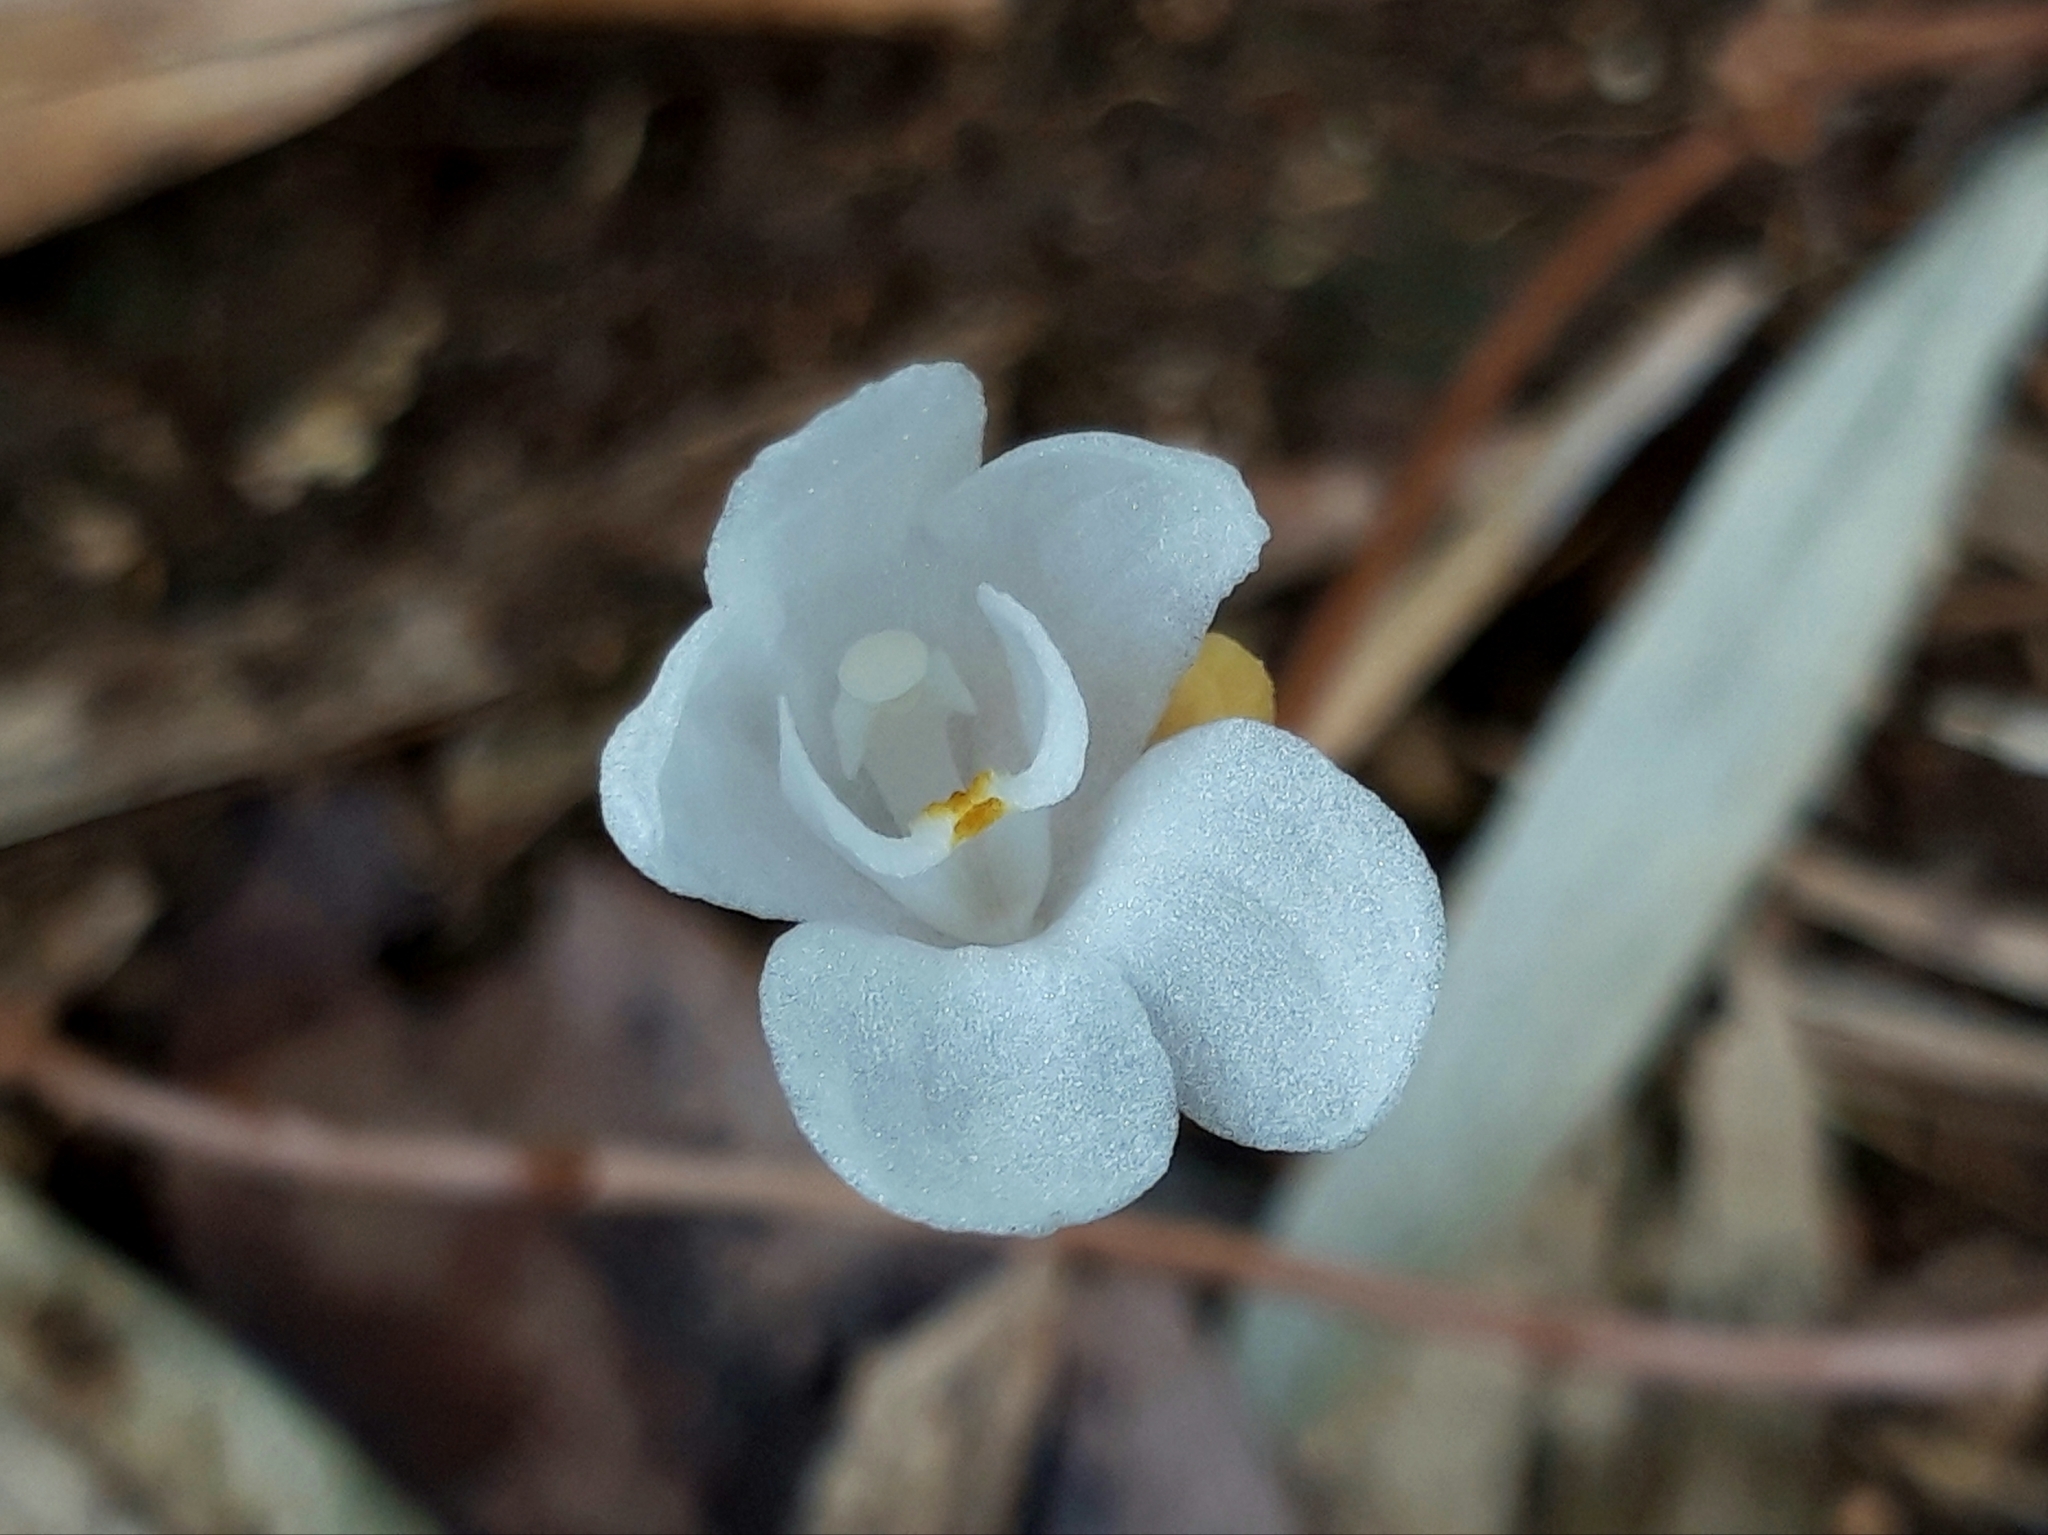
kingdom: Plantae
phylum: Tracheophyta
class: Liliopsida
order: Asparagales
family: Orchidaceae
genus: Didymoplexis
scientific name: Didymoplexis pallens
